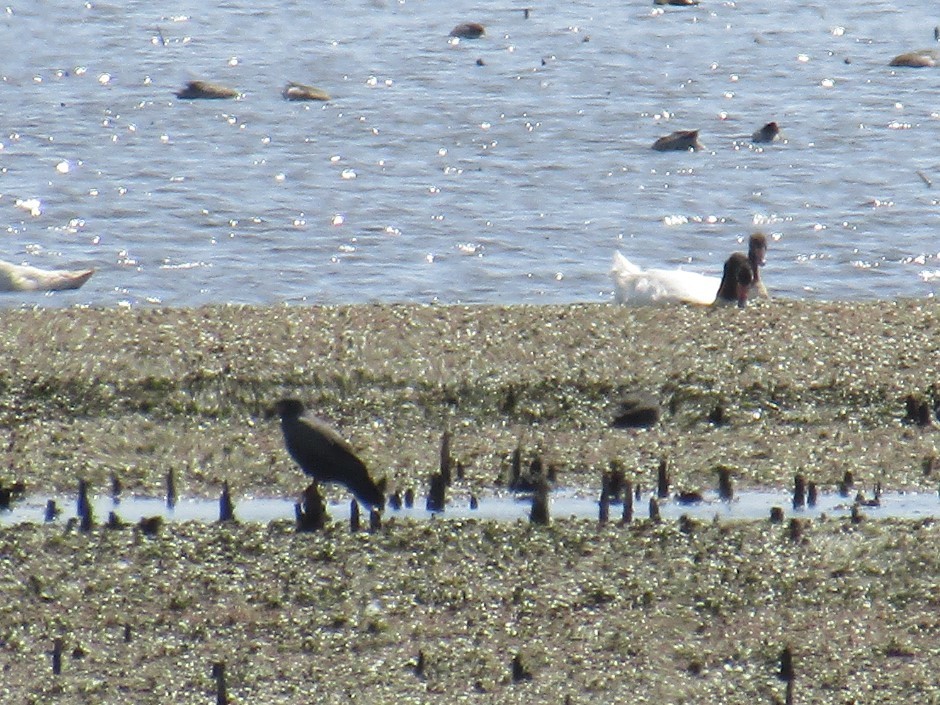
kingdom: Animalia
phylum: Chordata
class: Aves
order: Accipitriformes
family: Accipitridae
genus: Rostrhamus
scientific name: Rostrhamus sociabilis
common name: Snail kite
